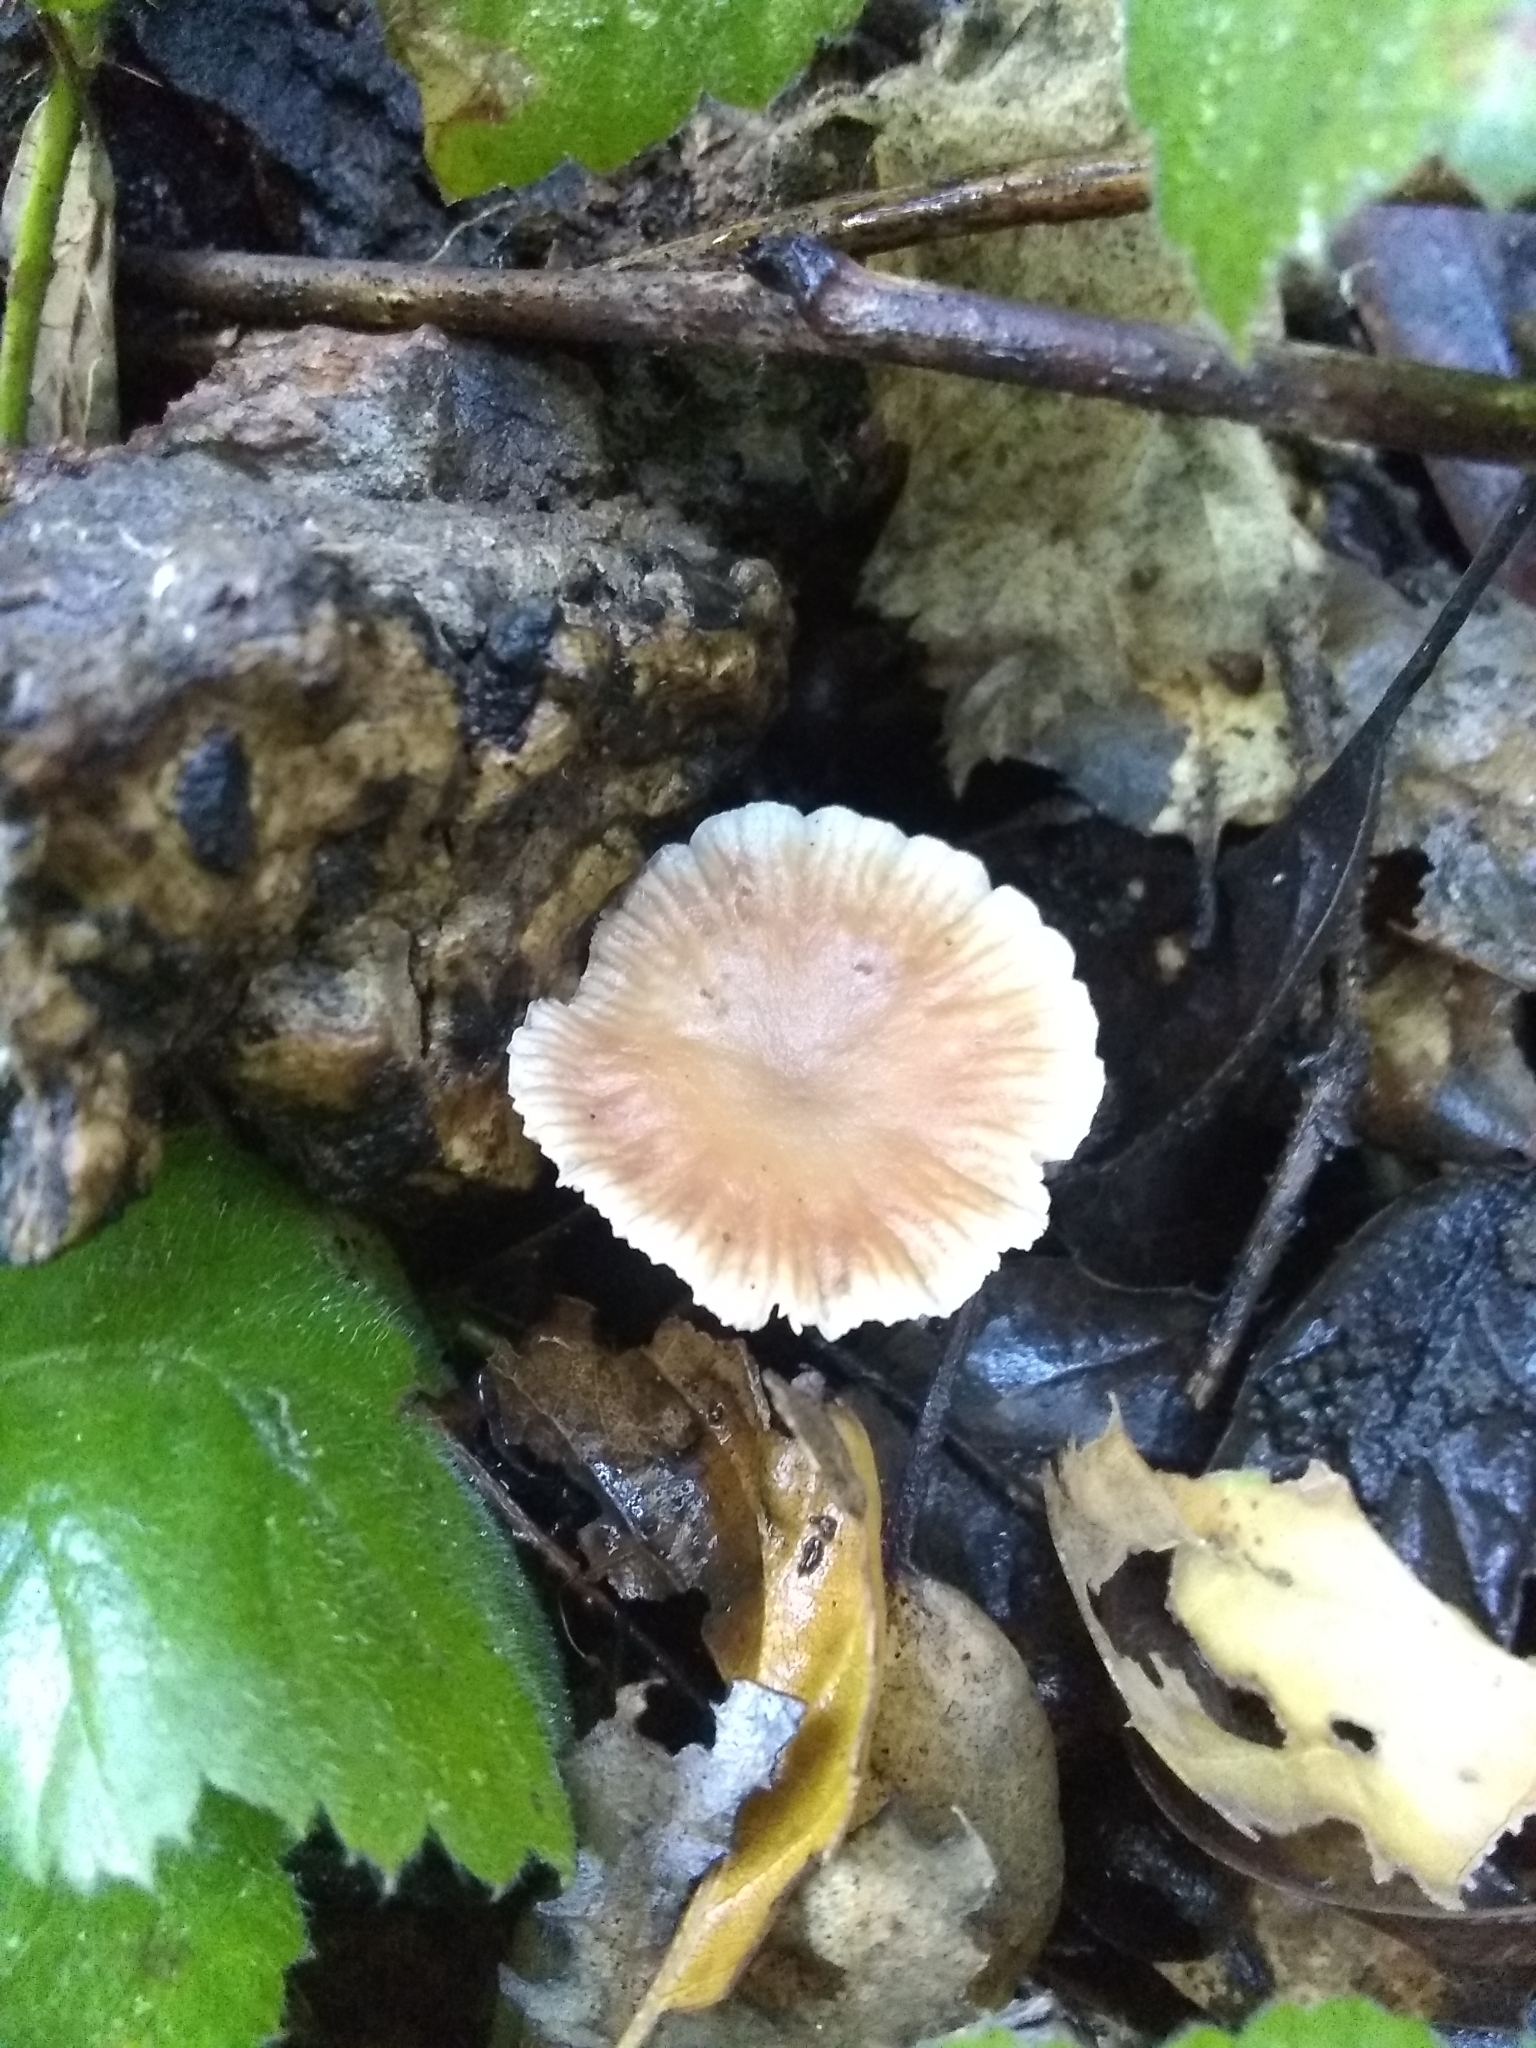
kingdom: Fungi
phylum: Basidiomycota
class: Agaricomycetes
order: Agaricales
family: Omphalotaceae
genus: Gymnopus
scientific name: Gymnopus brassicolens
